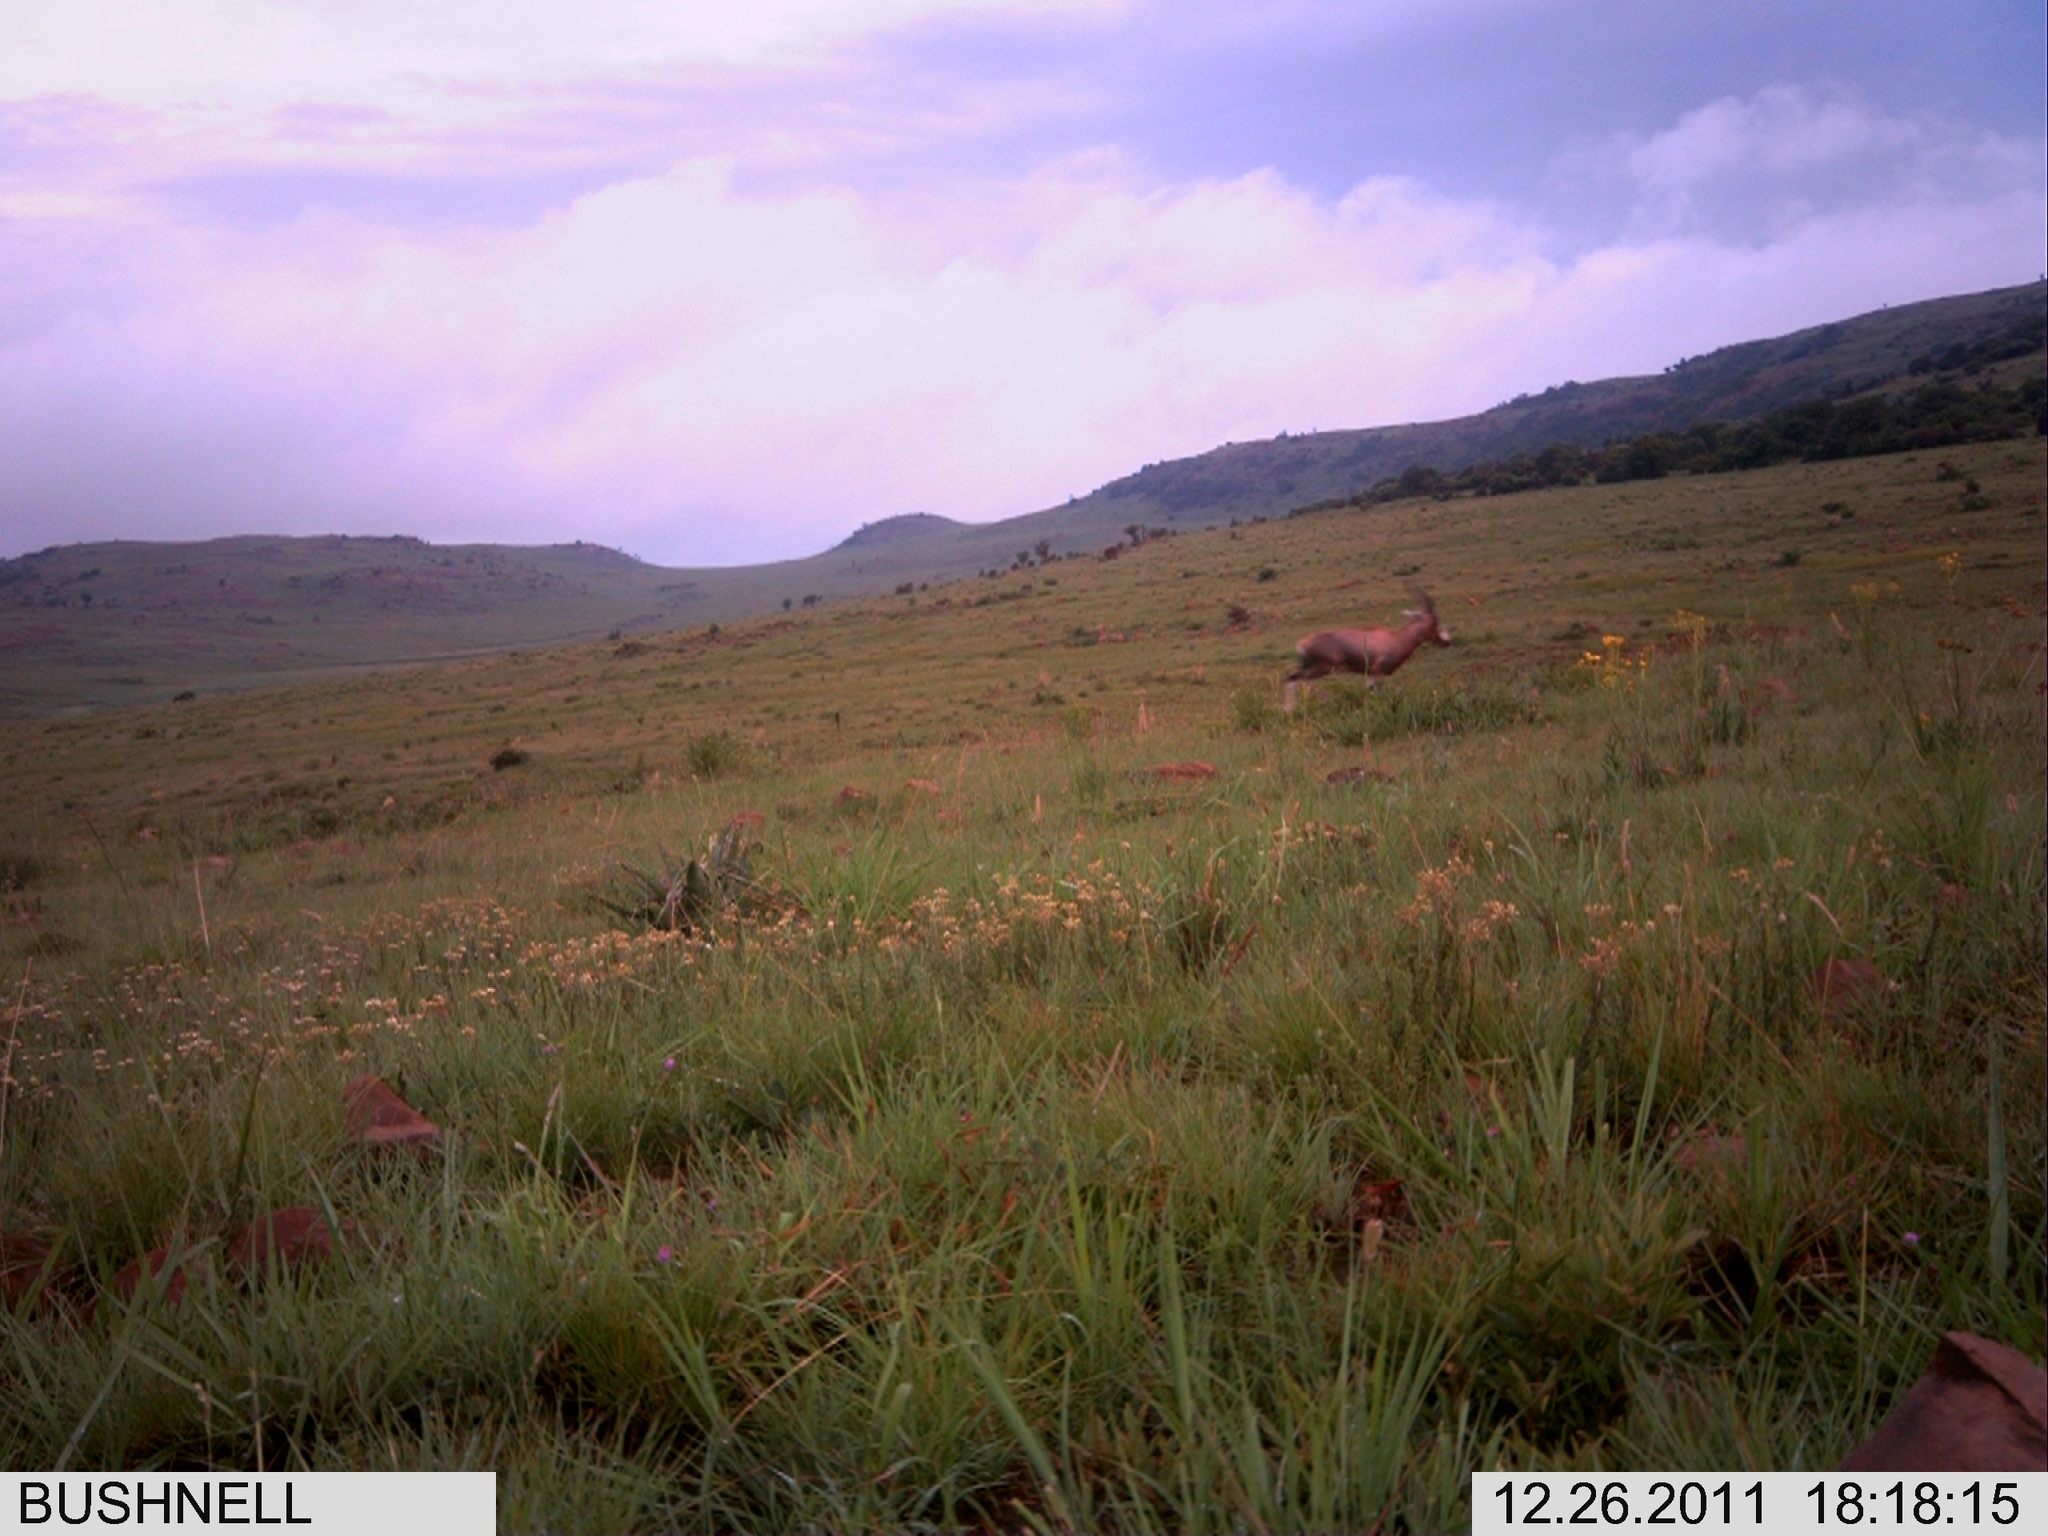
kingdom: Animalia
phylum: Chordata
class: Mammalia
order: Artiodactyla
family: Bovidae
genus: Damaliscus
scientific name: Damaliscus pygargus
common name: Bontebok
